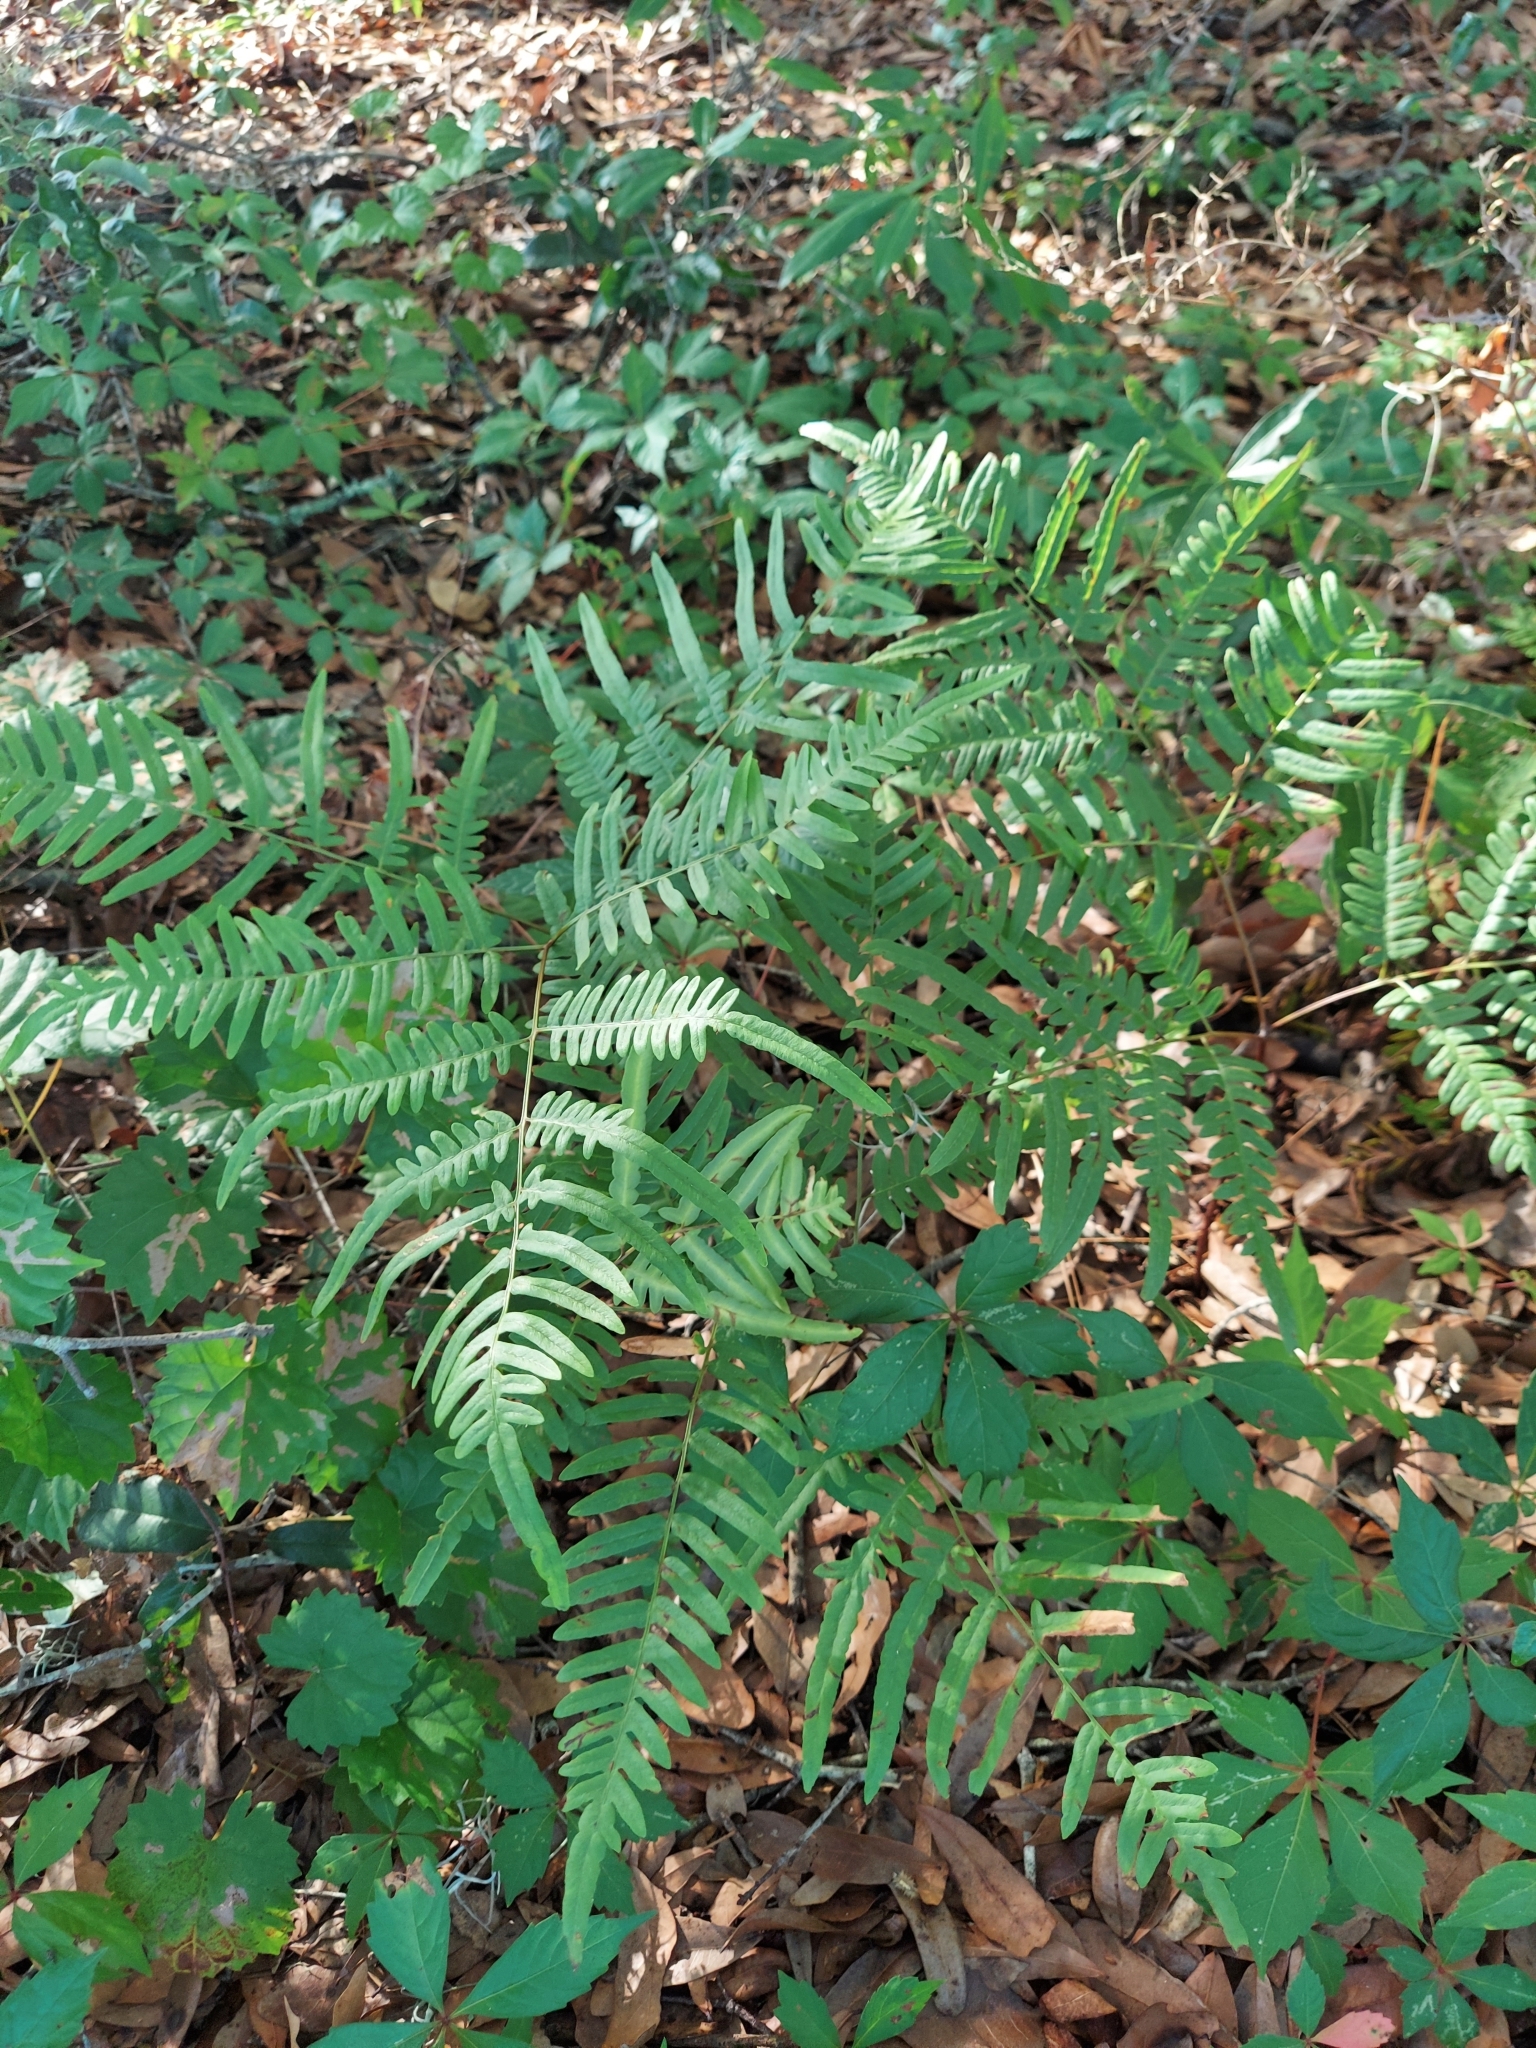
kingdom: Plantae
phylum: Tracheophyta
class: Polypodiopsida
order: Polypodiales
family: Dennstaedtiaceae
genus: Pteridium
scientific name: Pteridium
